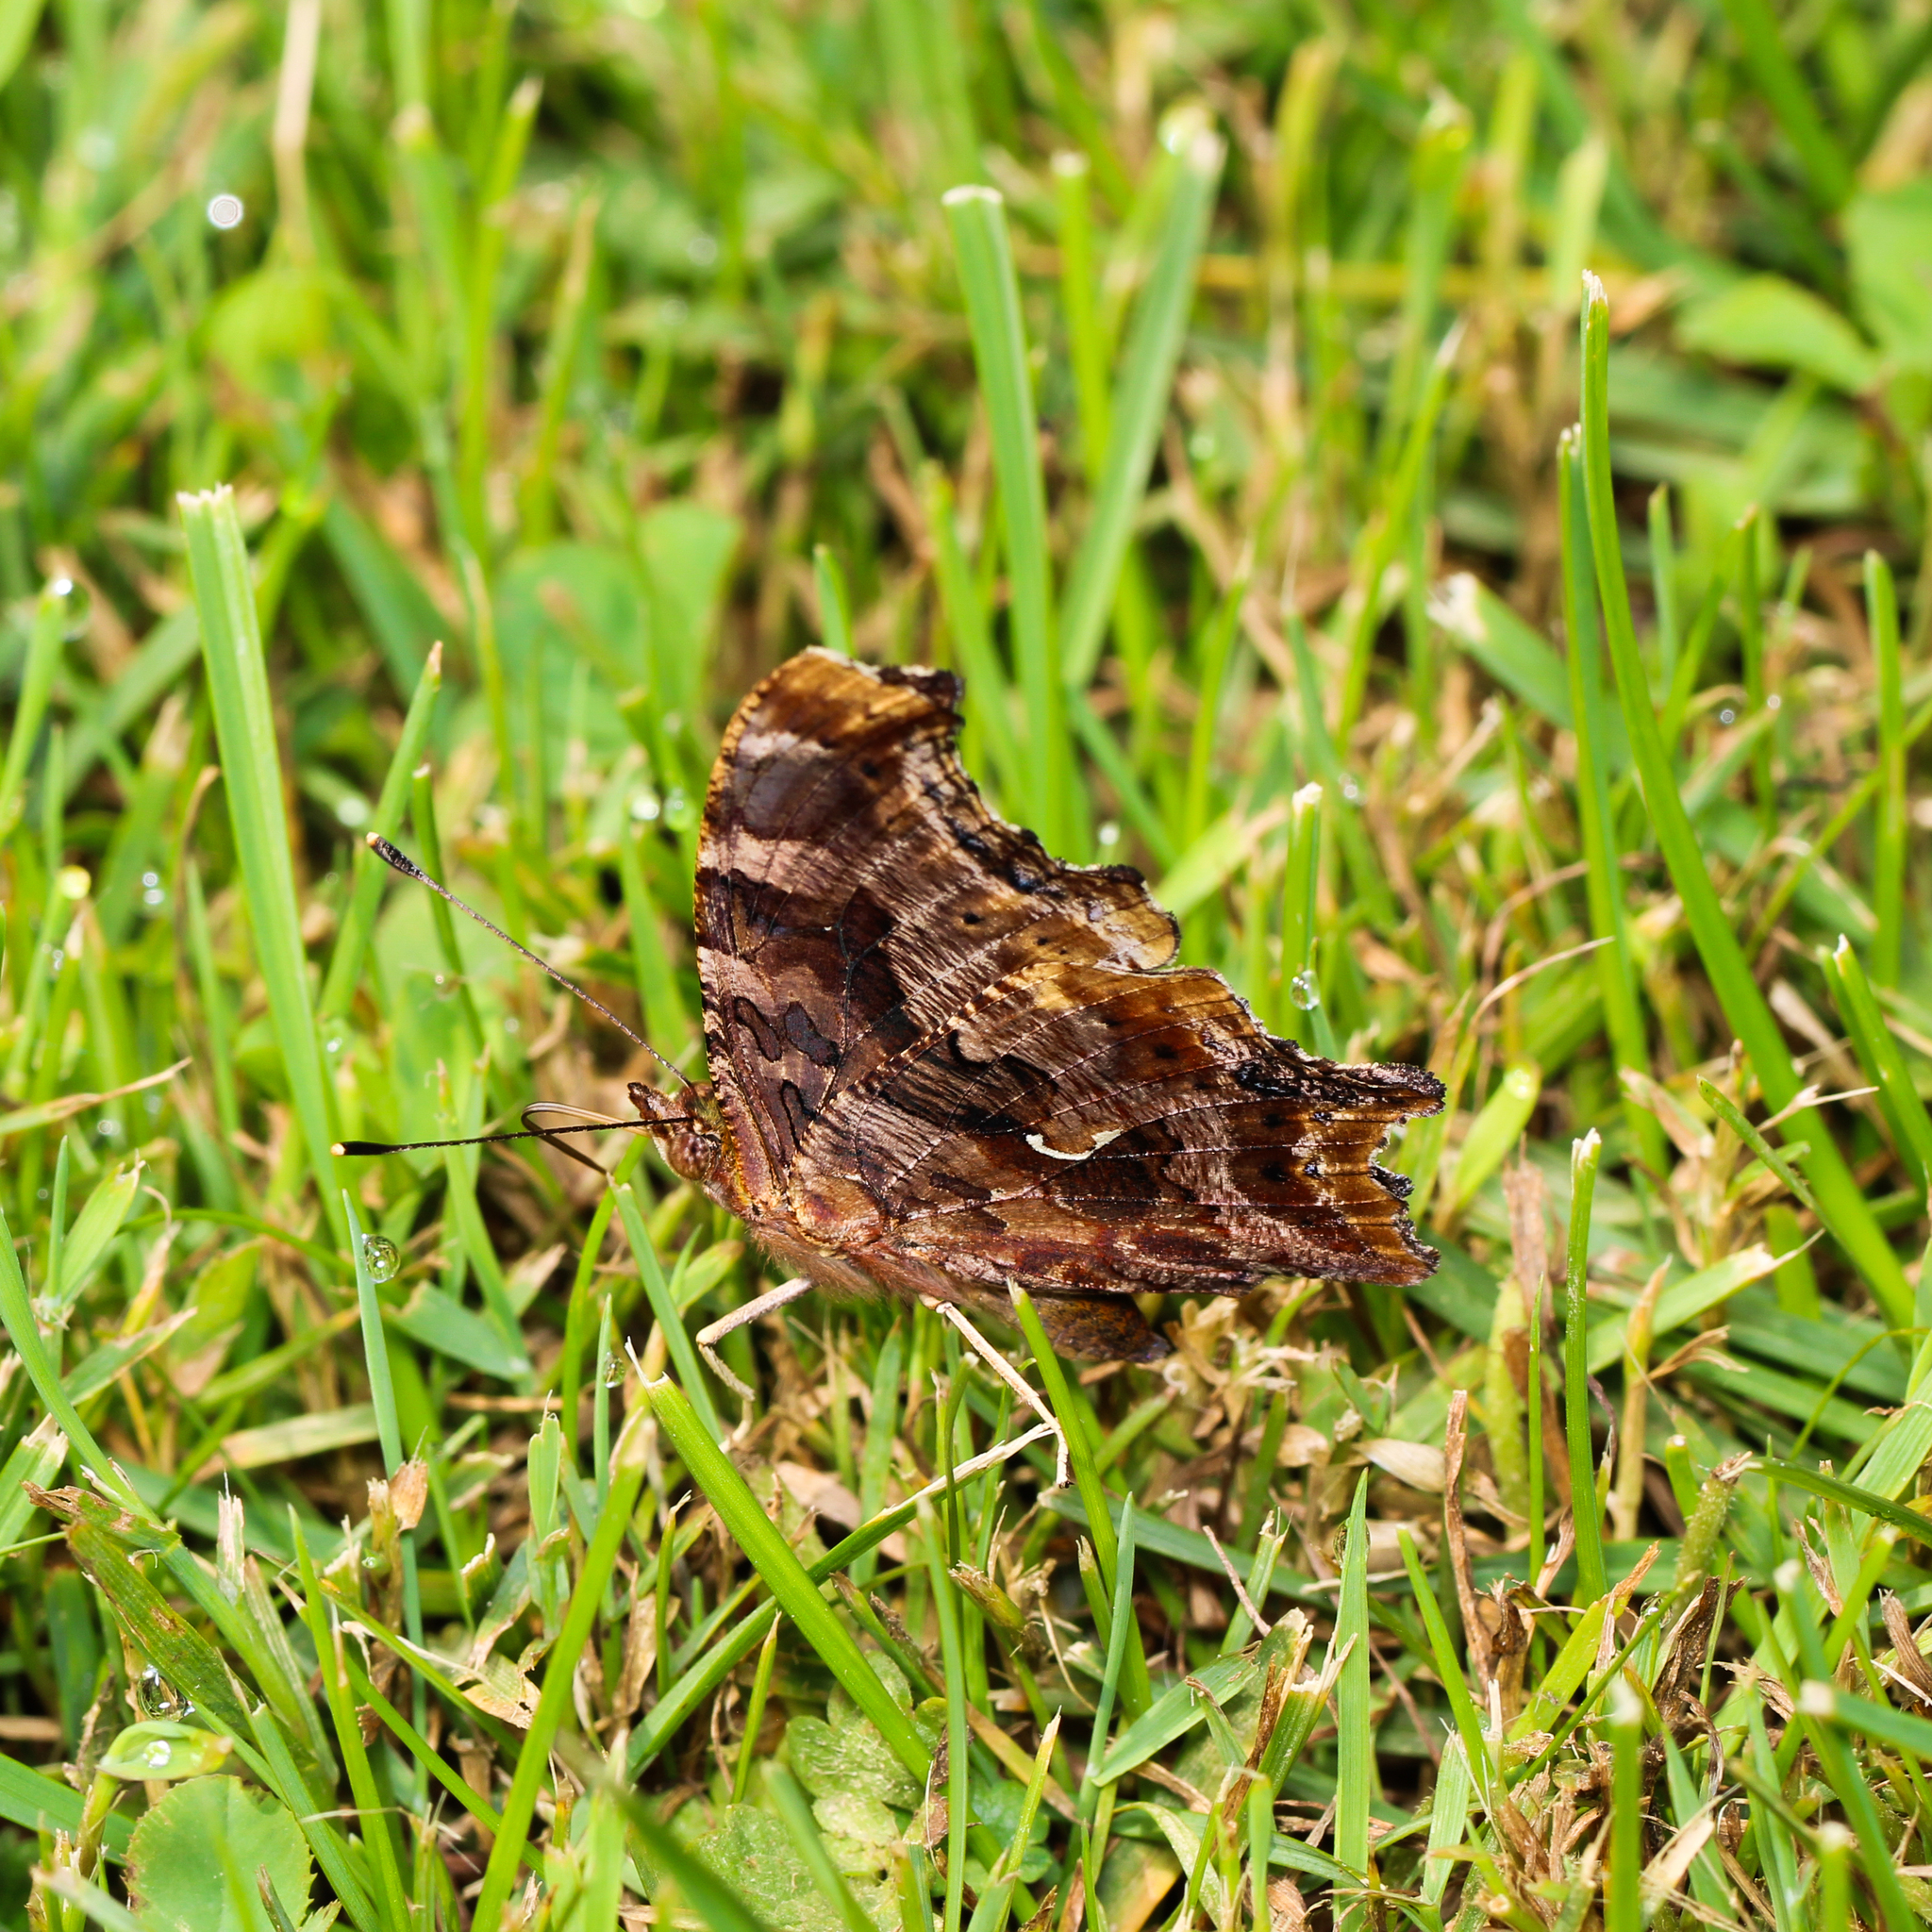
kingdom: Animalia
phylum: Arthropoda
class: Insecta
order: Lepidoptera
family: Nymphalidae
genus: Polygonia
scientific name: Polygonia comma
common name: Eastern comma
